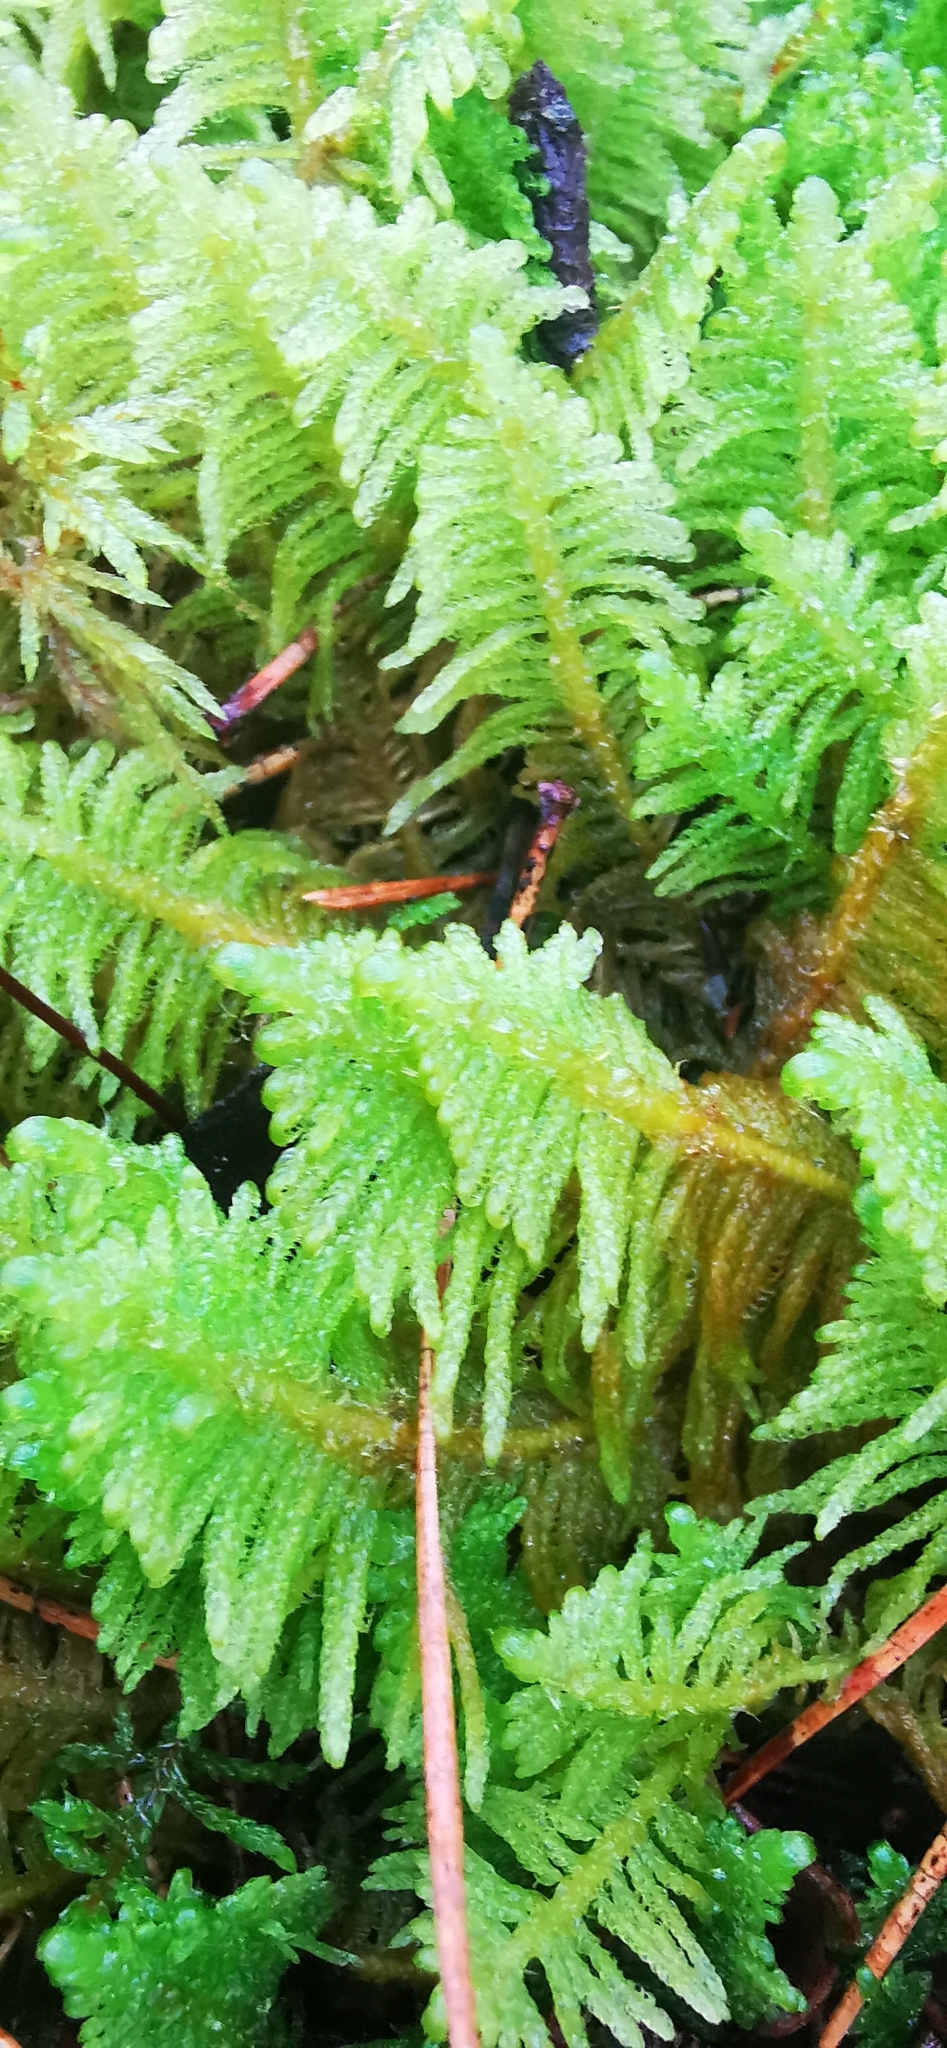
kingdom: Plantae
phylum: Bryophyta
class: Bryopsida
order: Hypnales
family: Pylaisiaceae
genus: Ptilium
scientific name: Ptilium crista-castrensis
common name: Knight's plume moss
